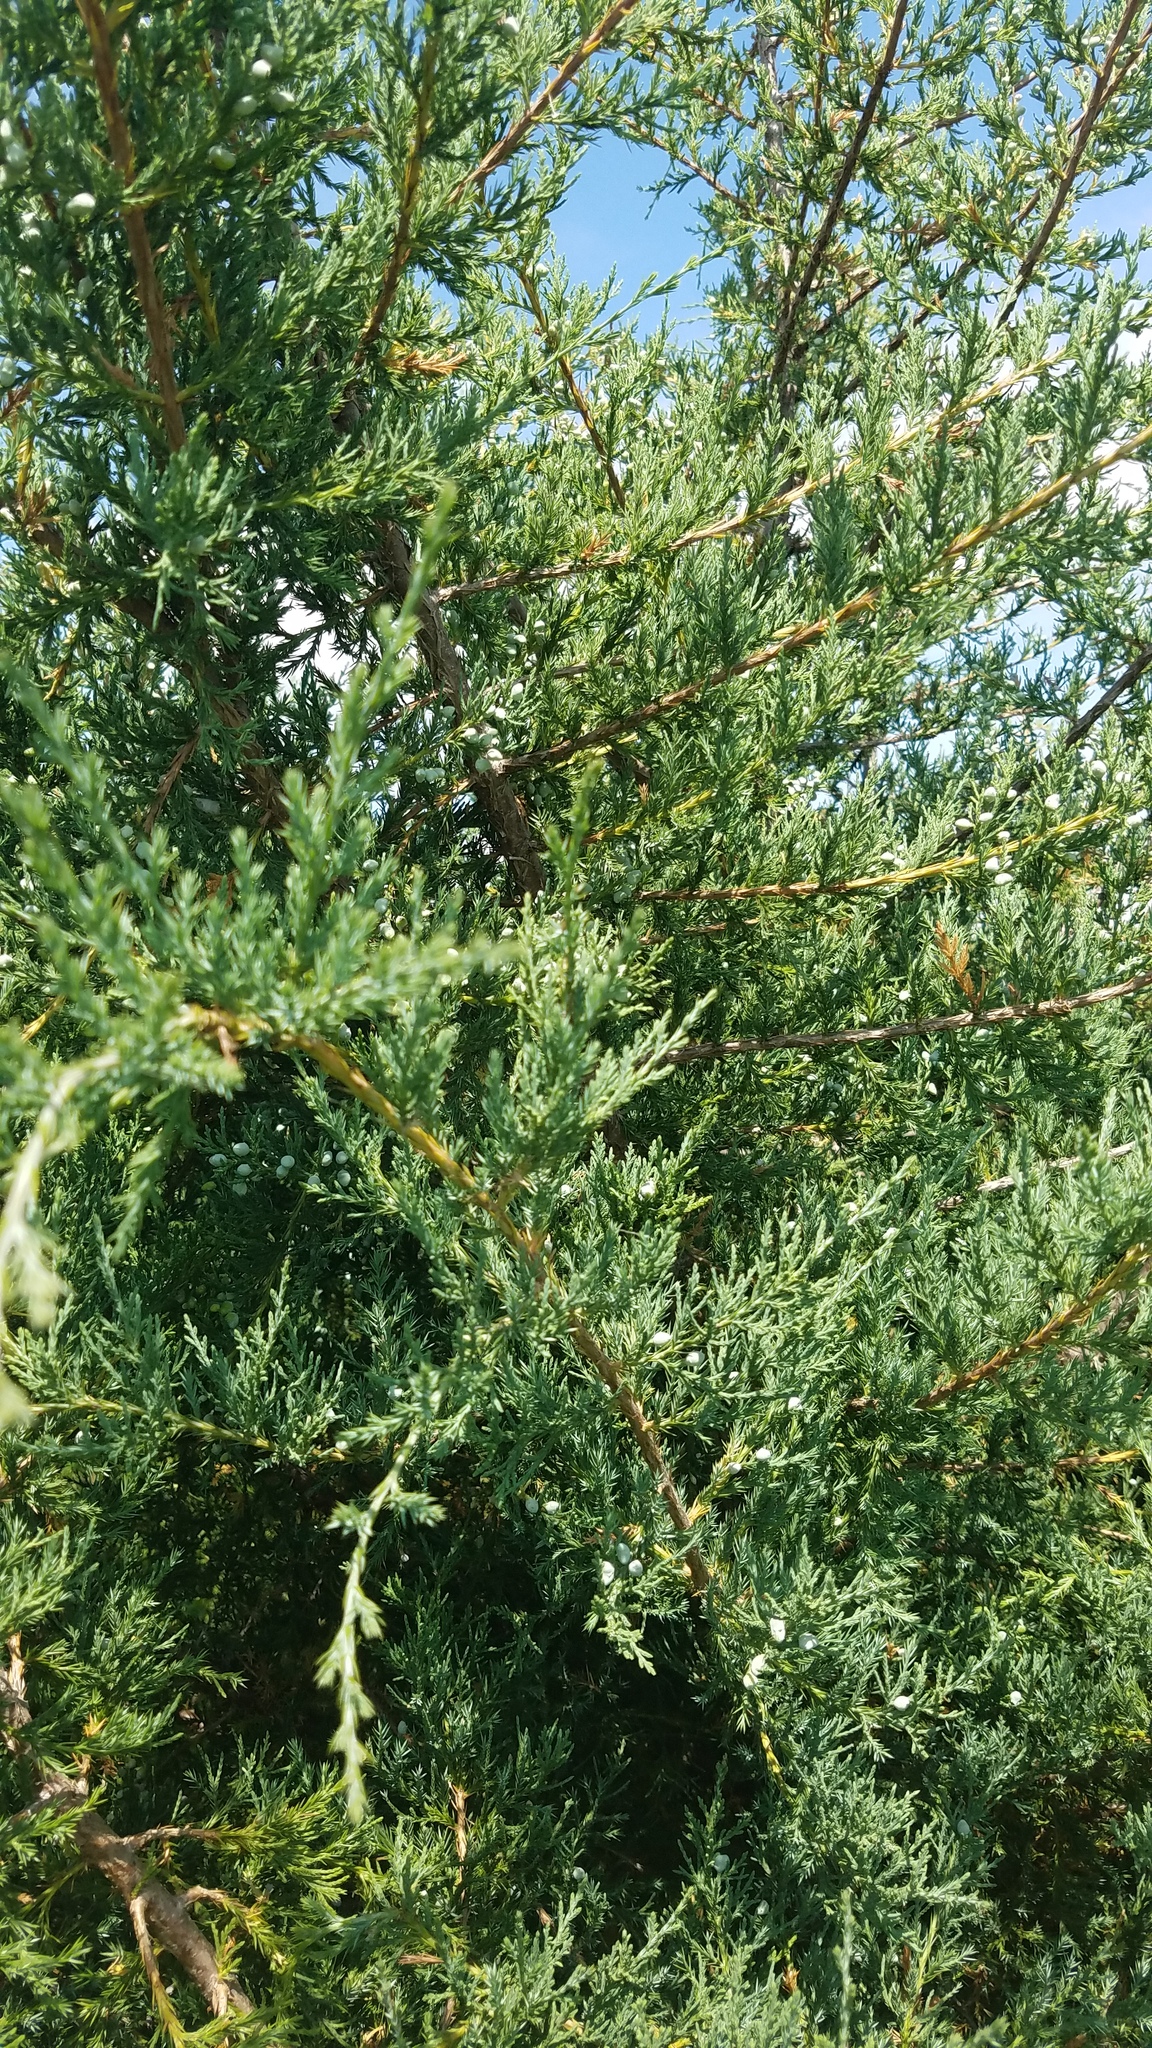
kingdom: Plantae
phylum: Tracheophyta
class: Pinopsida
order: Pinales
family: Cupressaceae
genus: Juniperus
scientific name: Juniperus virginiana
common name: Red juniper
